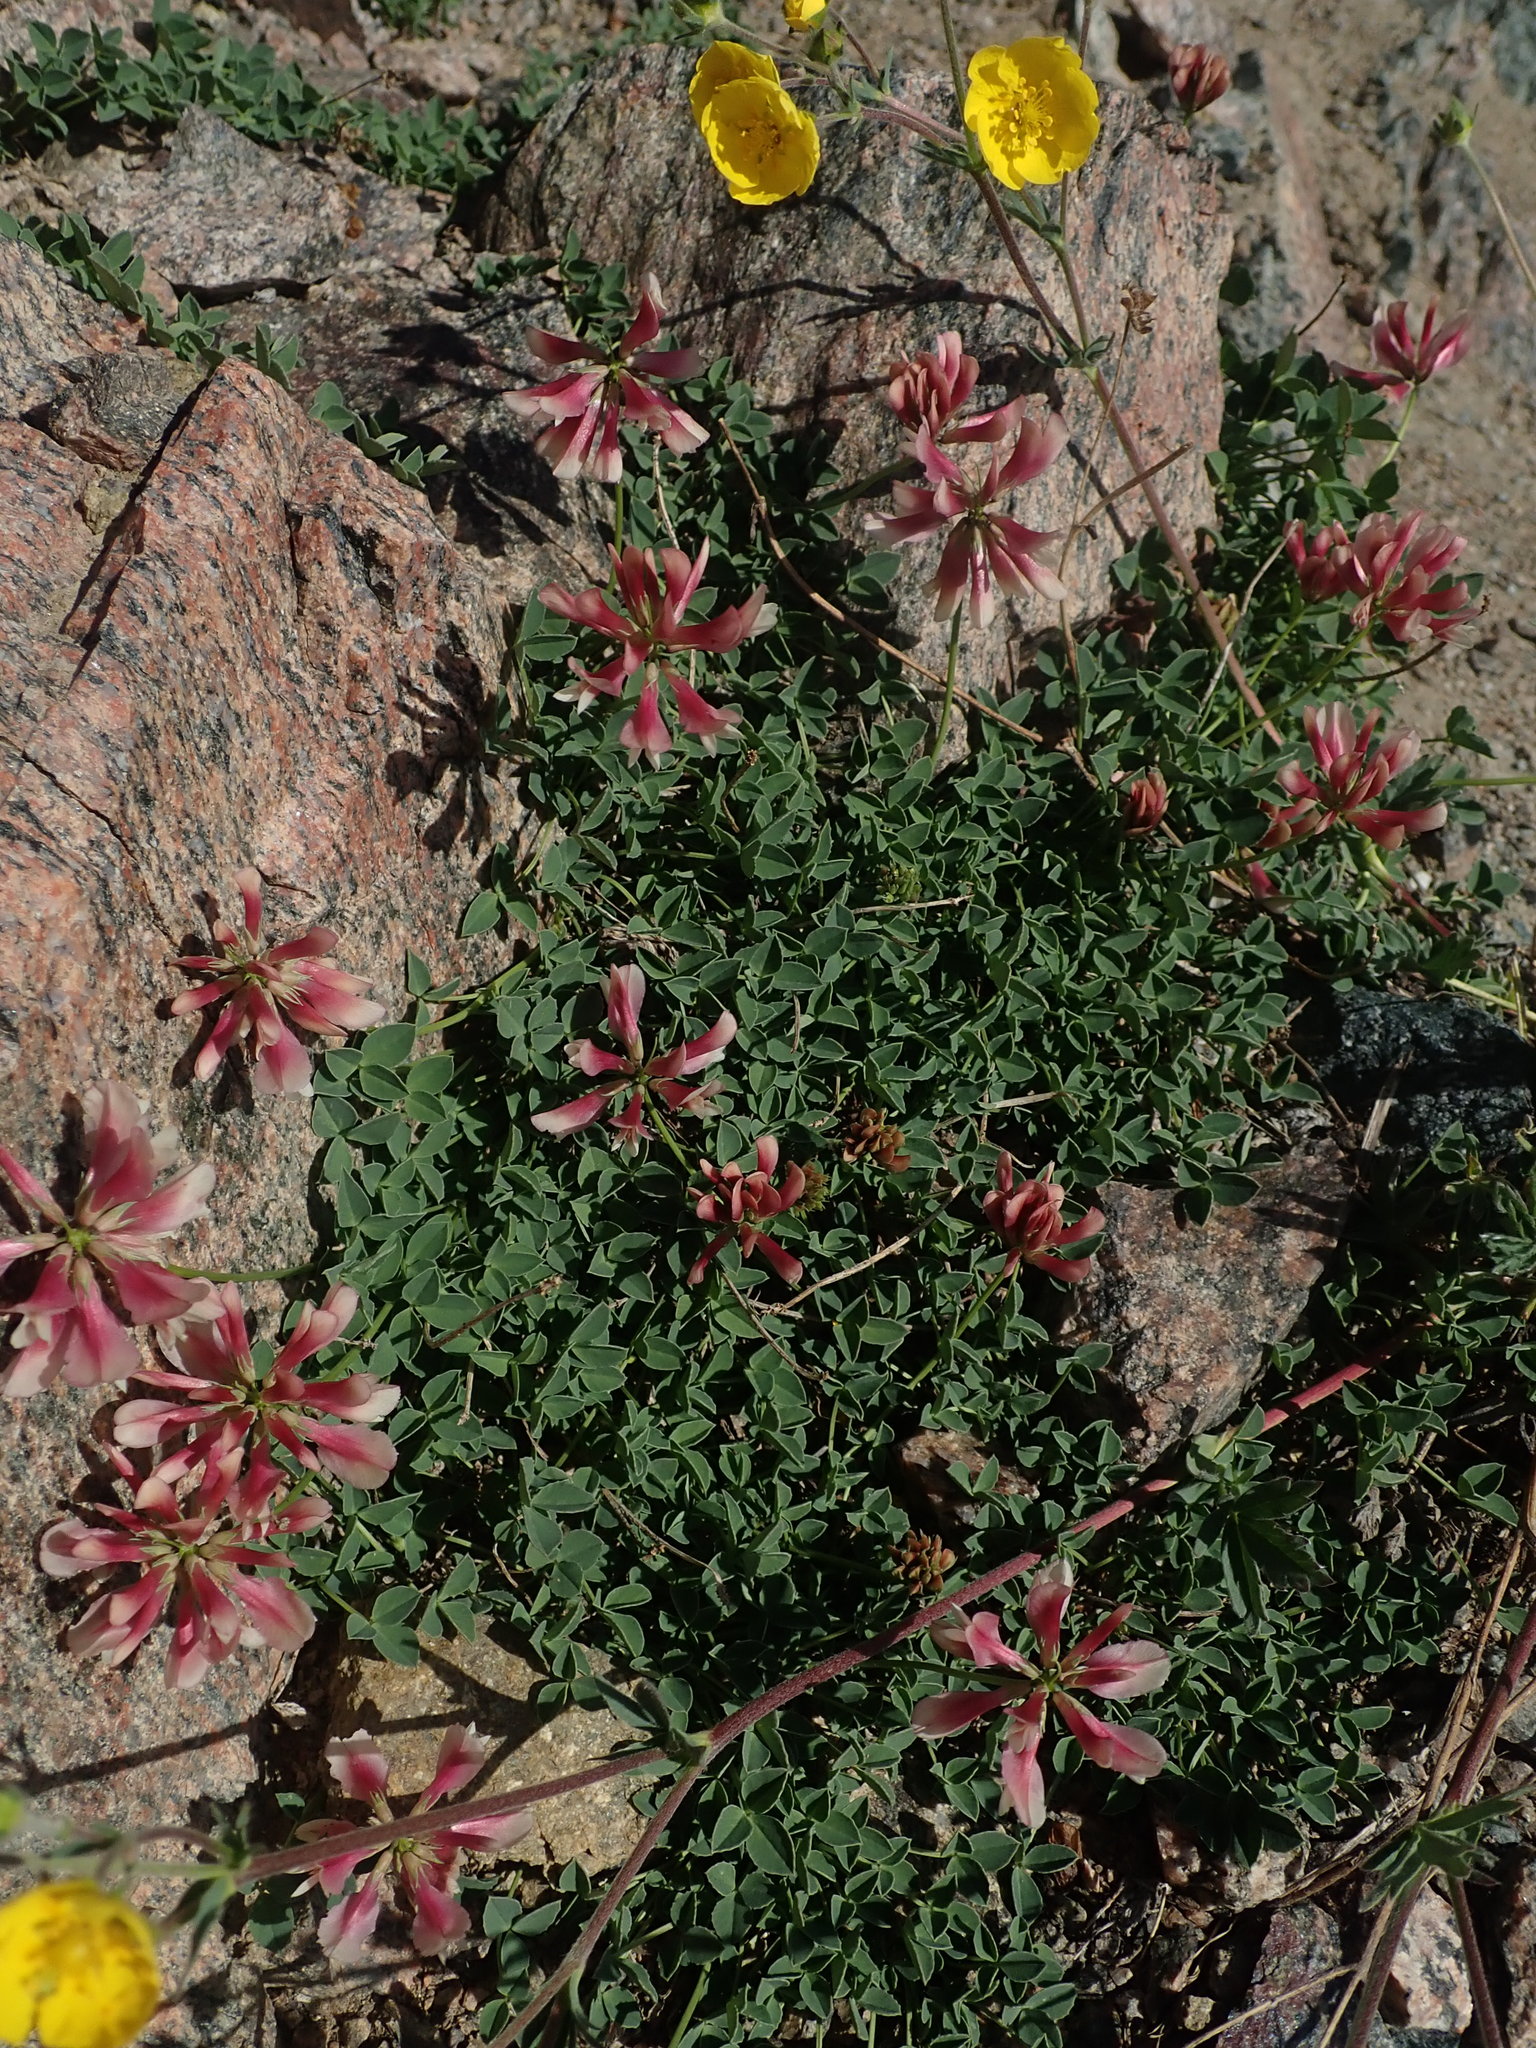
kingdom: Plantae
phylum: Tracheophyta
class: Magnoliopsida
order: Fabales
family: Fabaceae
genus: Trifolium
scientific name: Trifolium haydenii
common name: Hayden's clover
